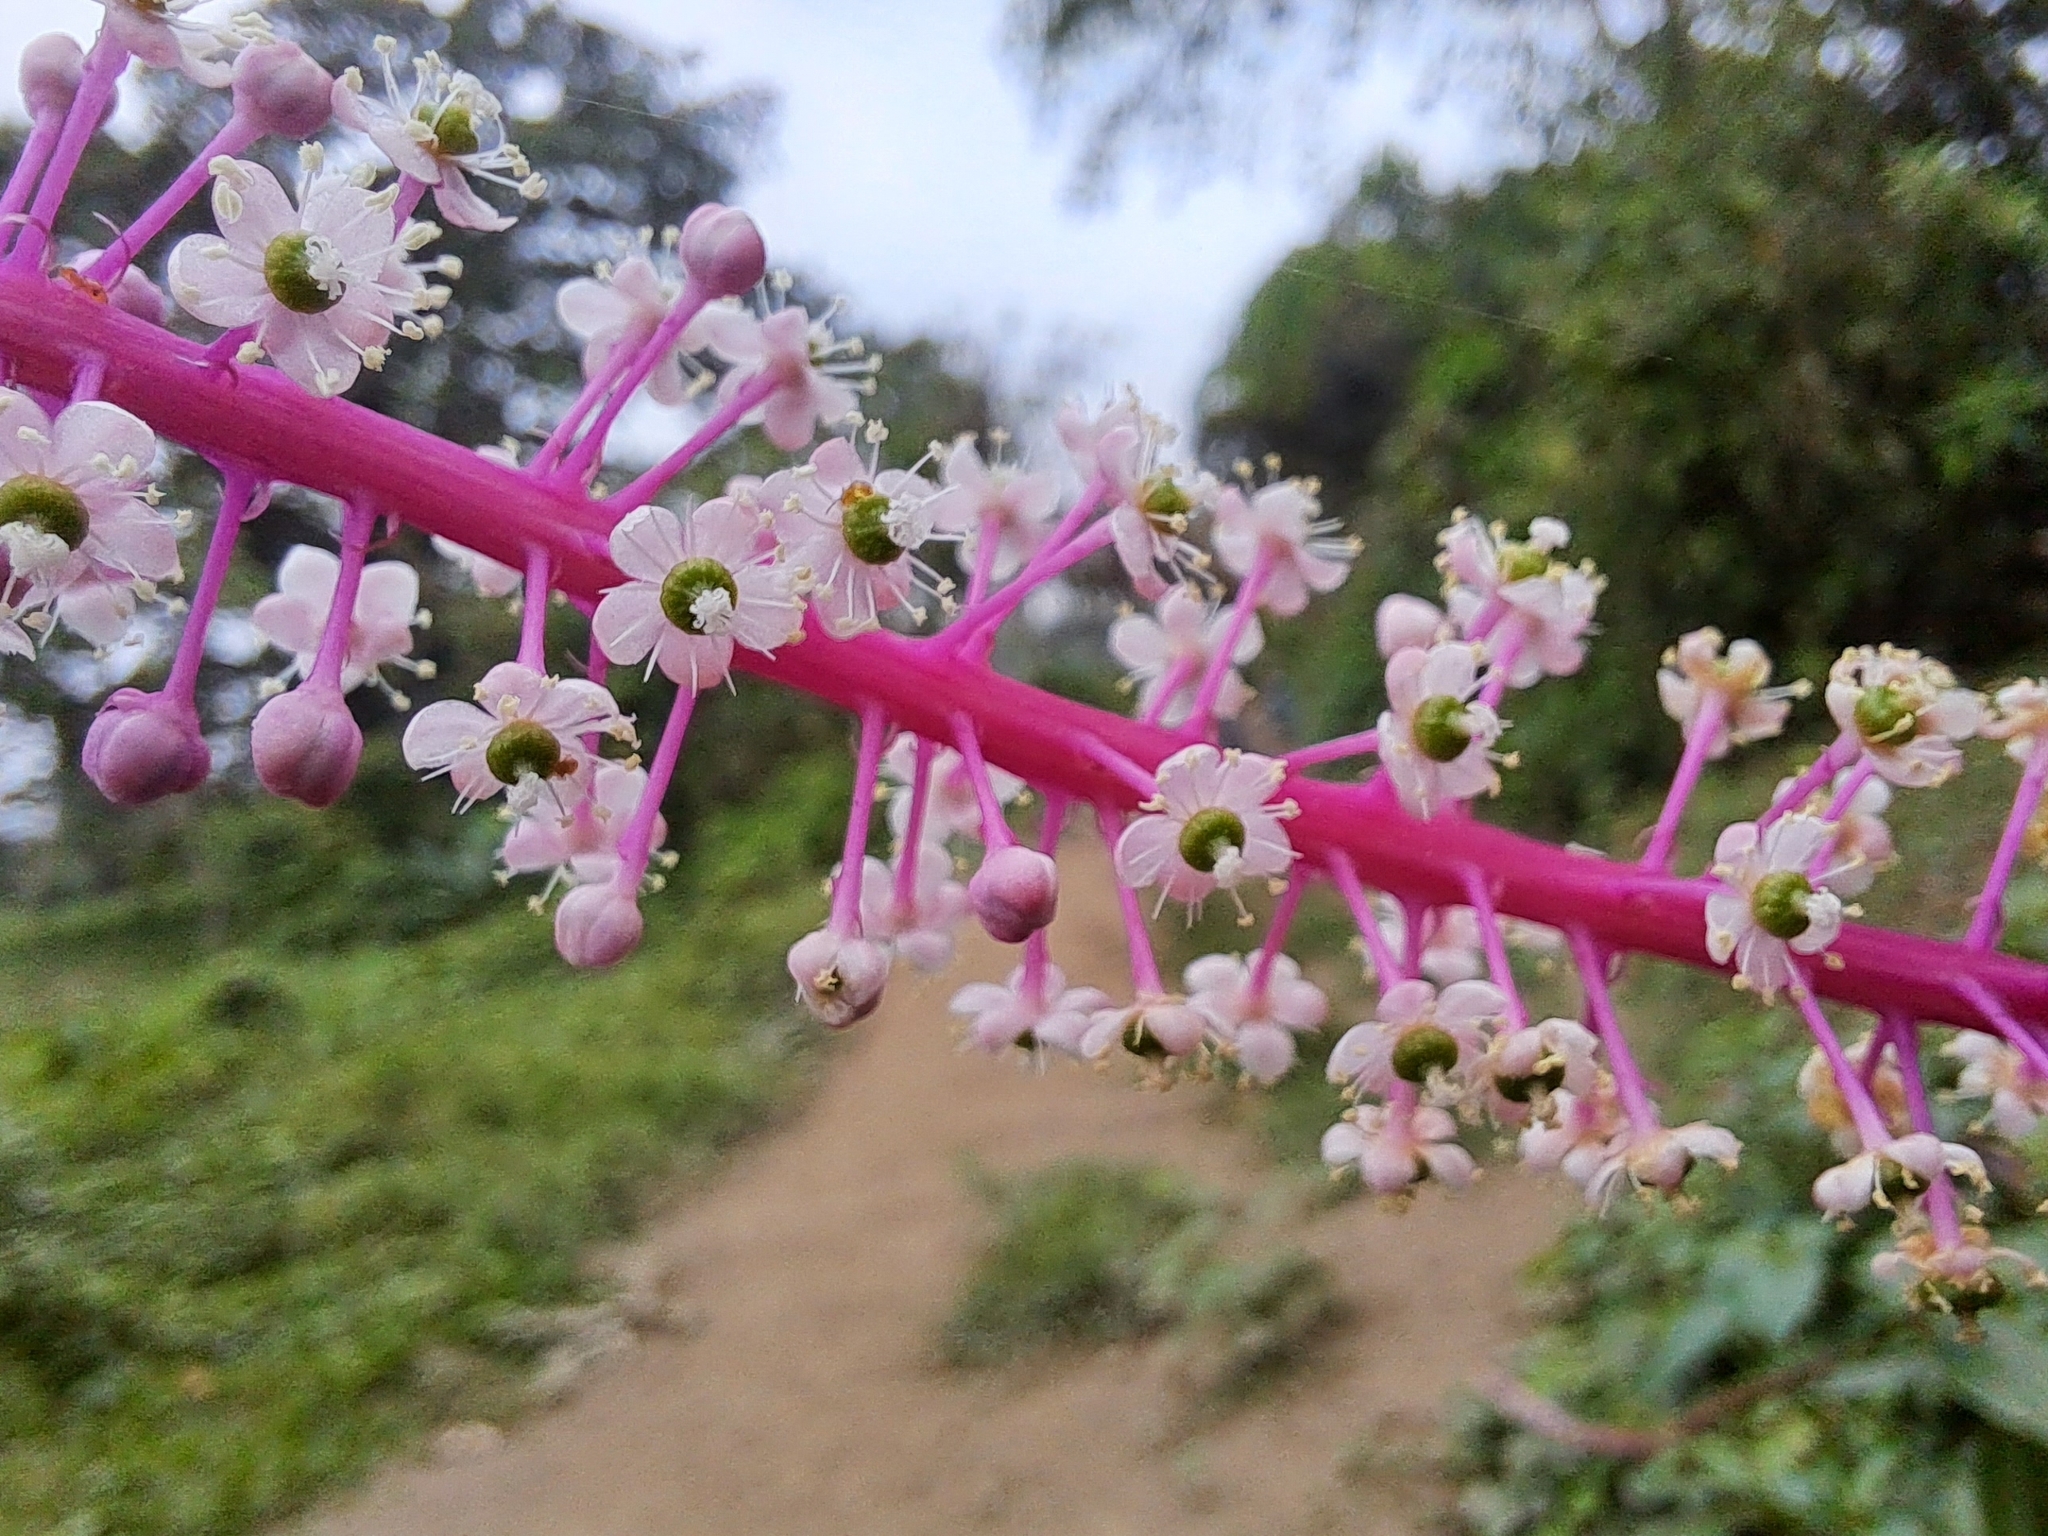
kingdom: Plantae
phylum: Tracheophyta
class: Magnoliopsida
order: Caryophyllales
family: Phytolaccaceae
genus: Phytolacca
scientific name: Phytolacca rivinoides
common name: Venezuelan pokeweed
